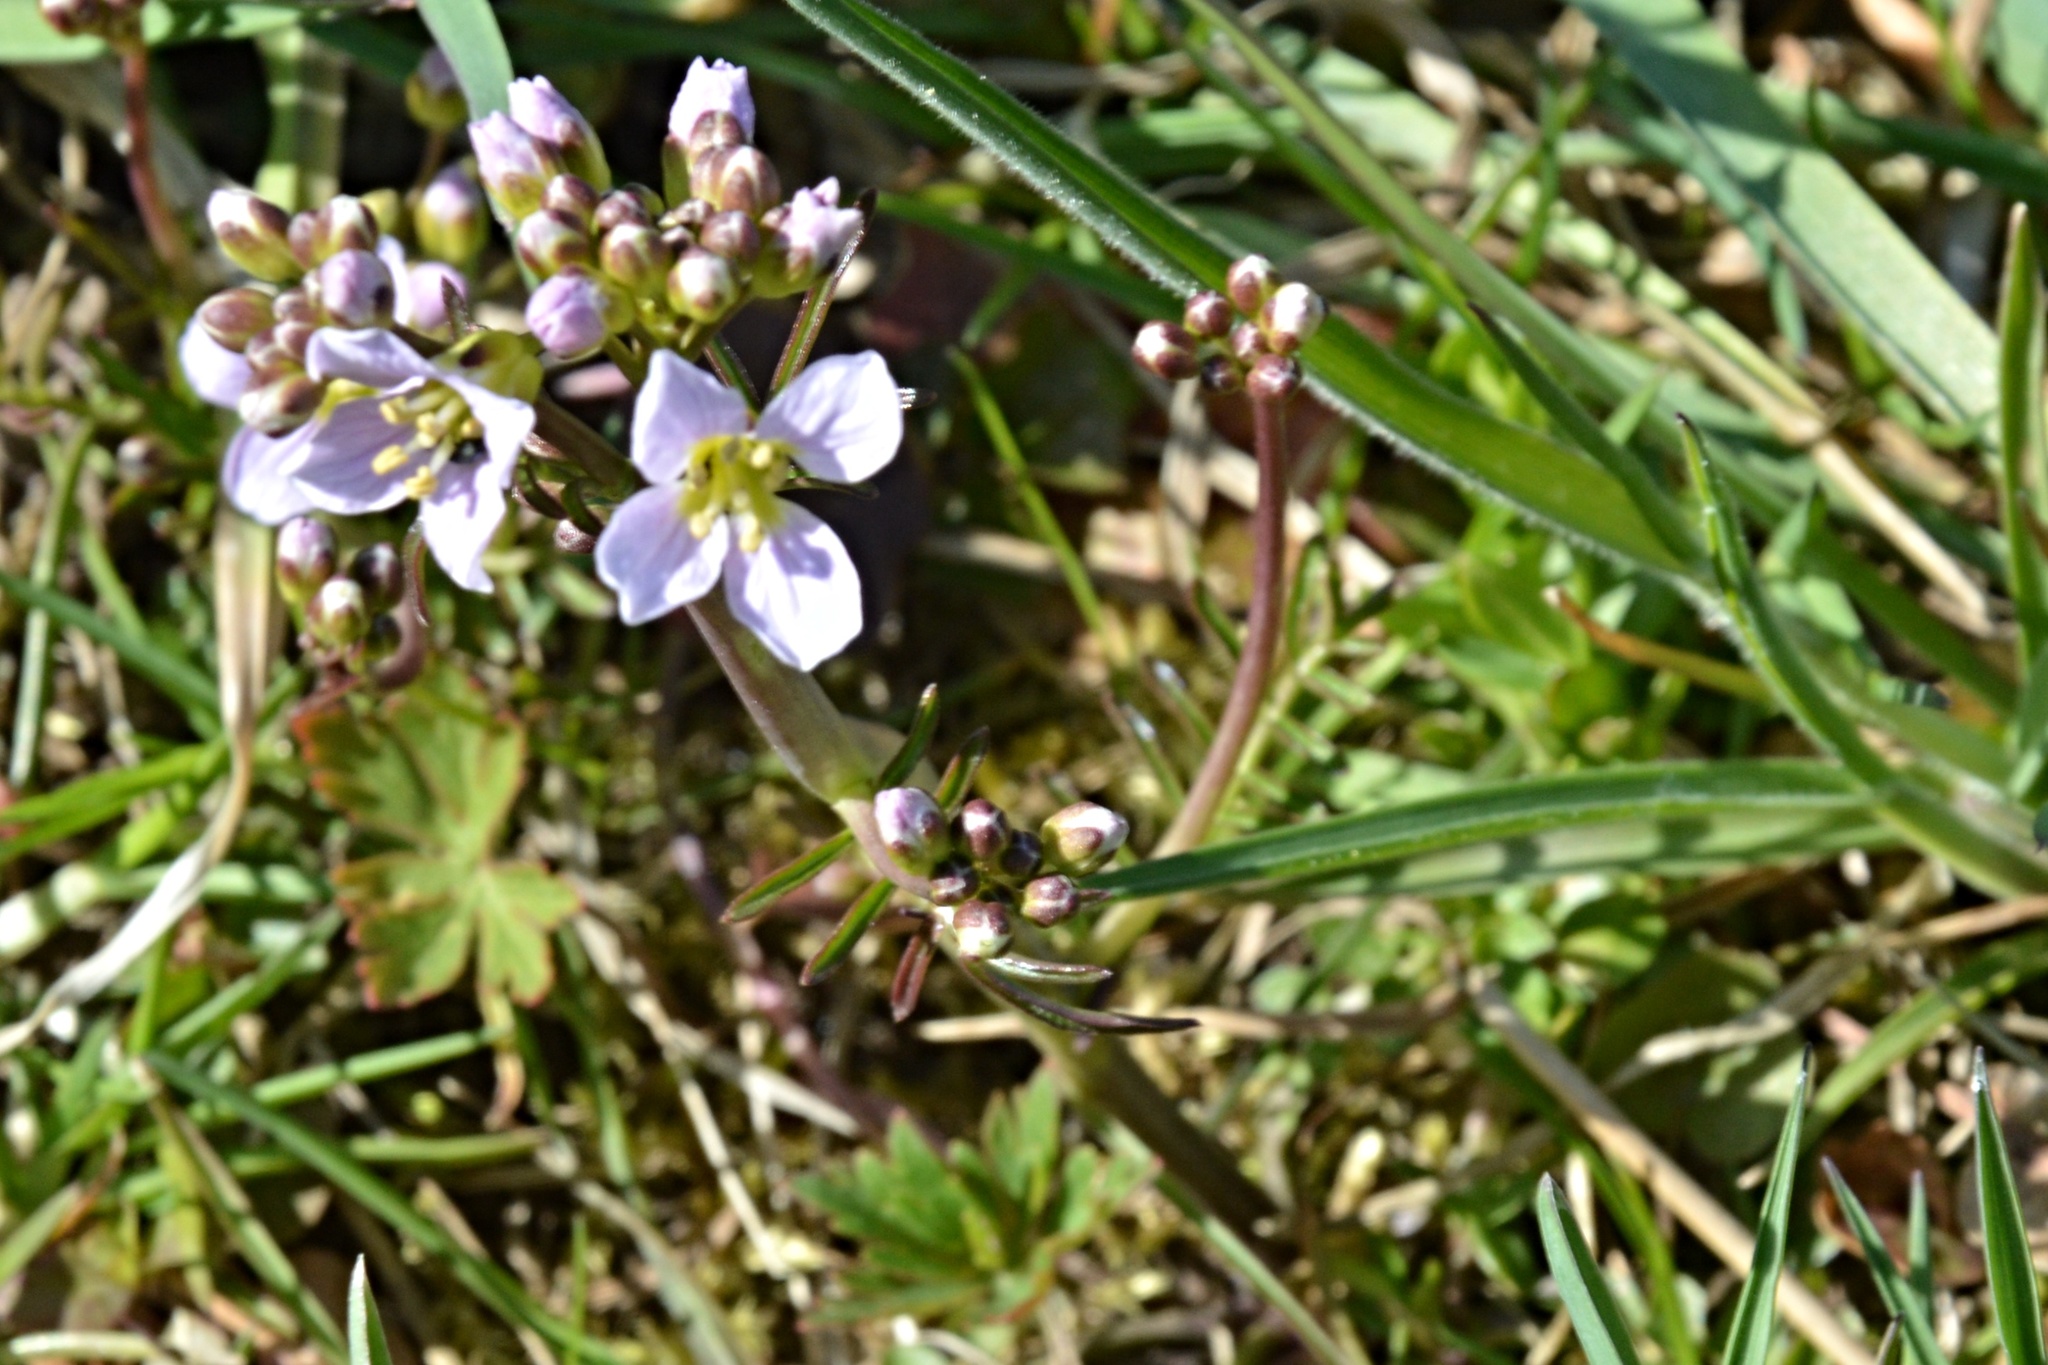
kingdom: Plantae
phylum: Tracheophyta
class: Magnoliopsida
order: Brassicales
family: Brassicaceae
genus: Cardamine
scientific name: Cardamine pratensis
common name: Cuckoo flower
